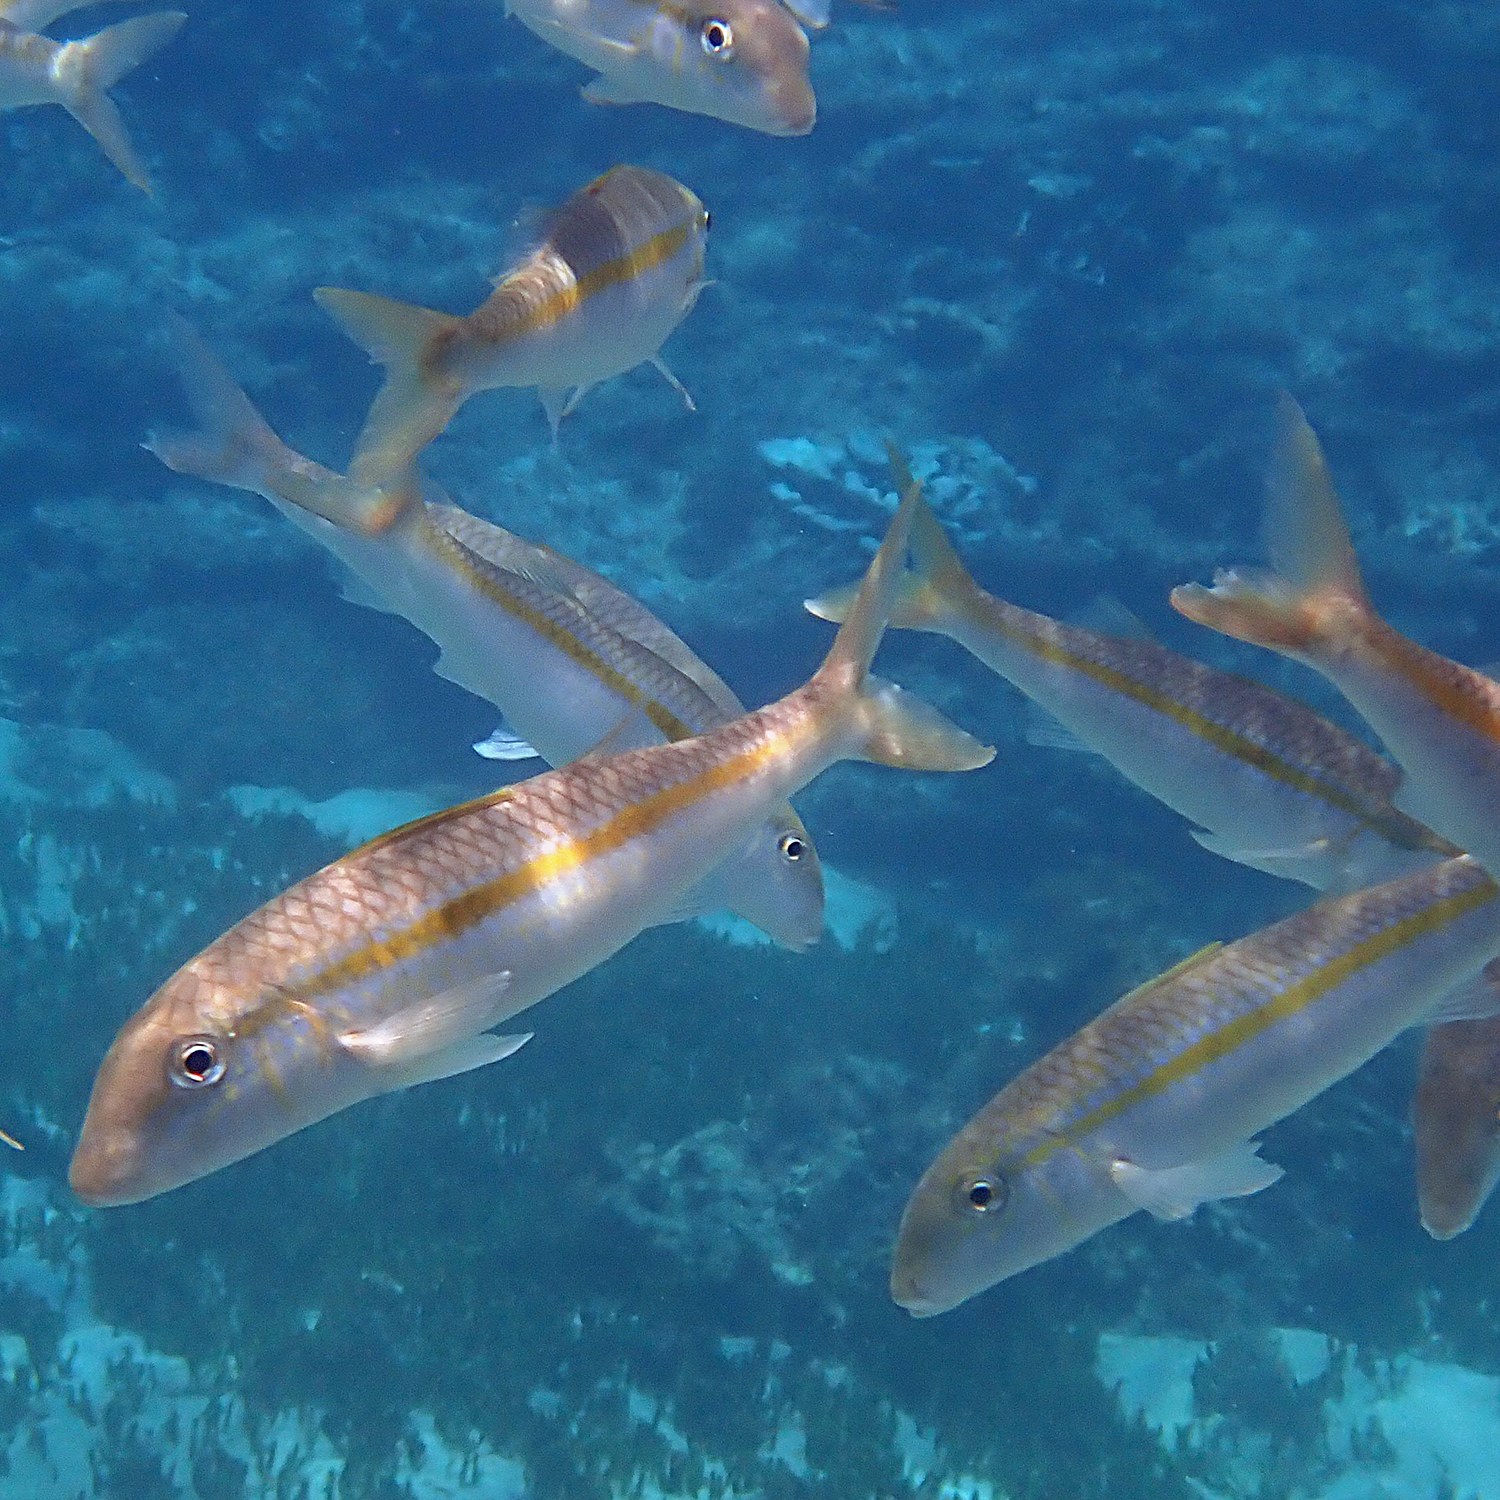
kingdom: Animalia
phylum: Chordata
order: Perciformes
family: Mullidae
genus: Mulloidichthys
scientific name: Mulloidichthys flavolineatus
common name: Yellowstripe goatfish
